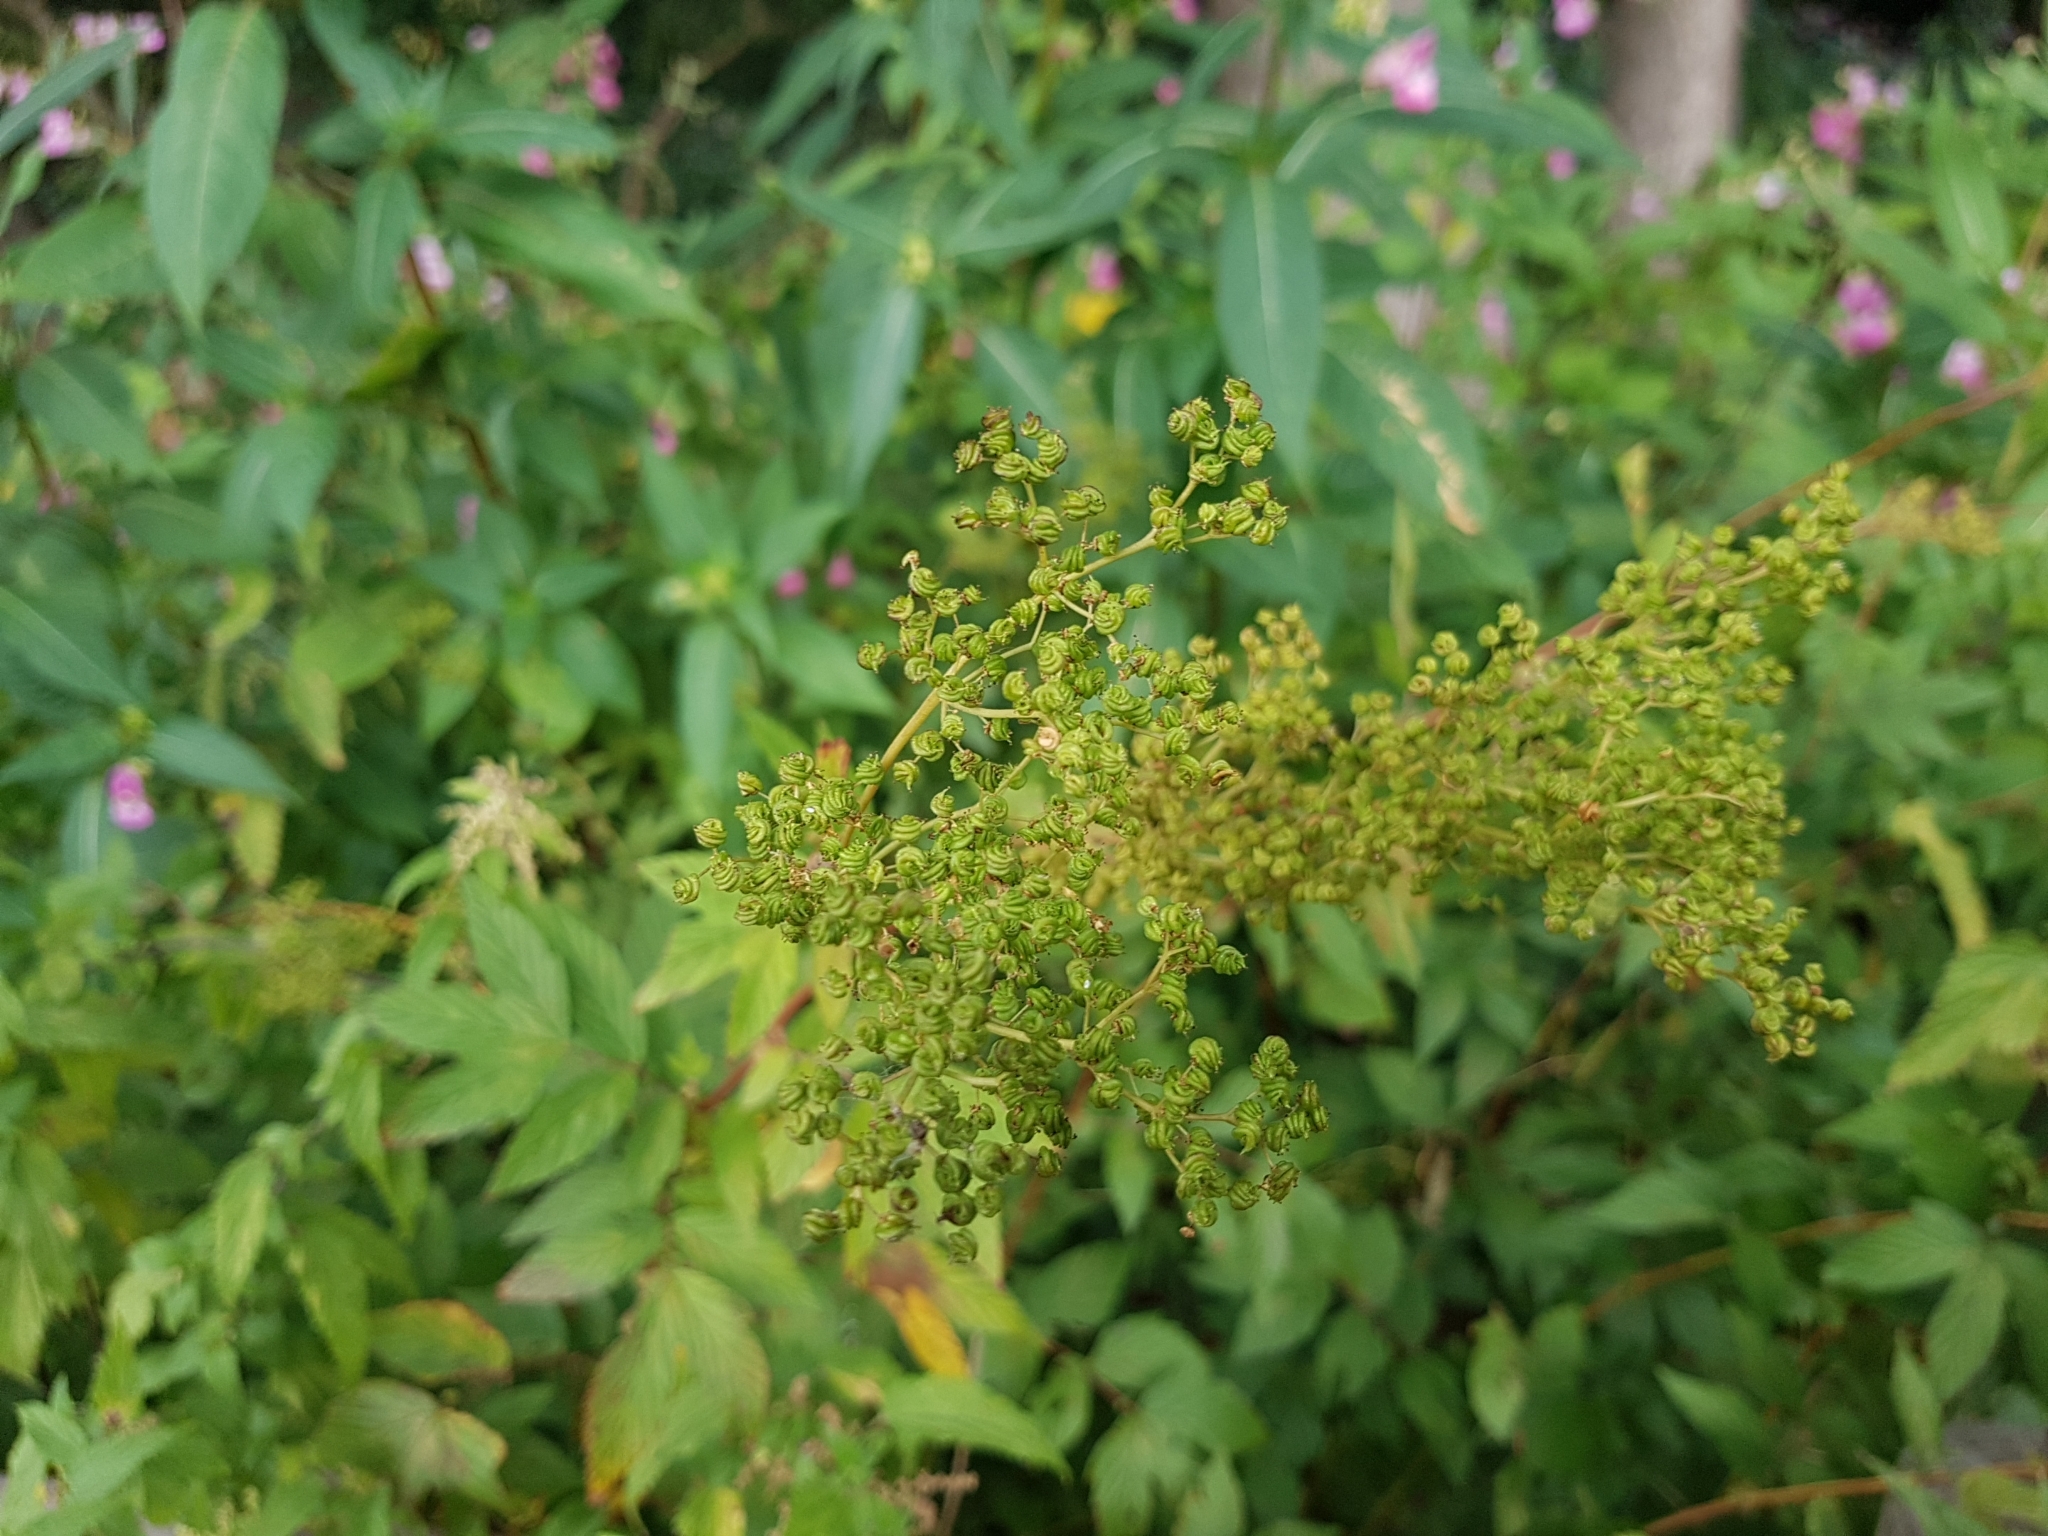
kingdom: Plantae
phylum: Tracheophyta
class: Magnoliopsida
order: Rosales
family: Rosaceae
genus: Filipendula
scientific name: Filipendula ulmaria
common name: Meadowsweet
